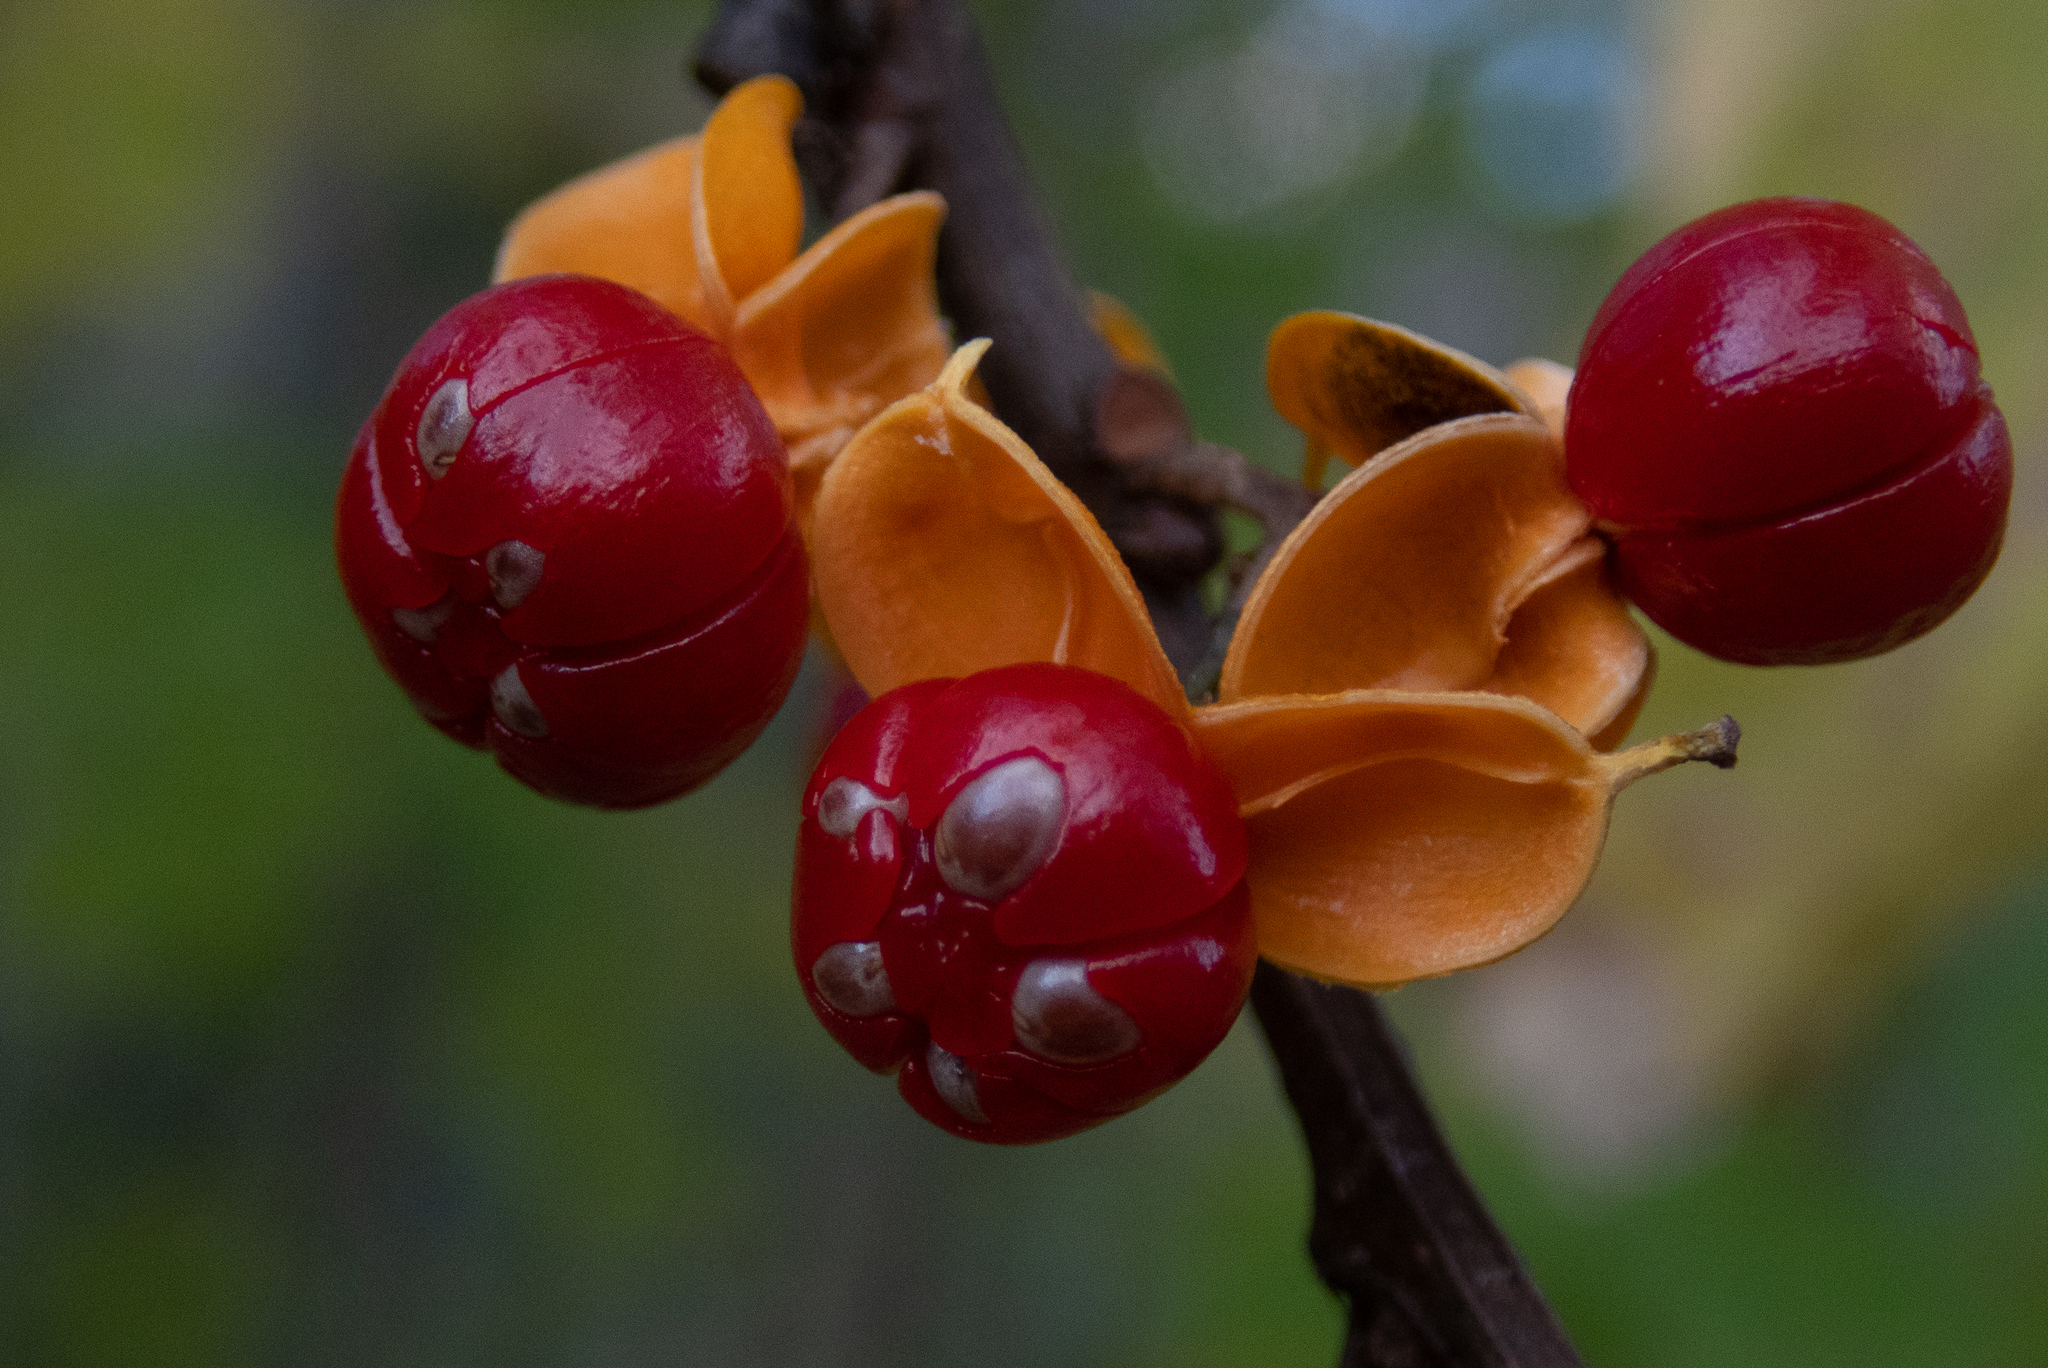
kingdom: Plantae
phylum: Tracheophyta
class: Magnoliopsida
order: Celastrales
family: Celastraceae
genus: Celastrus
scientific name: Celastrus orbiculatus
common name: Oriental bittersweet
